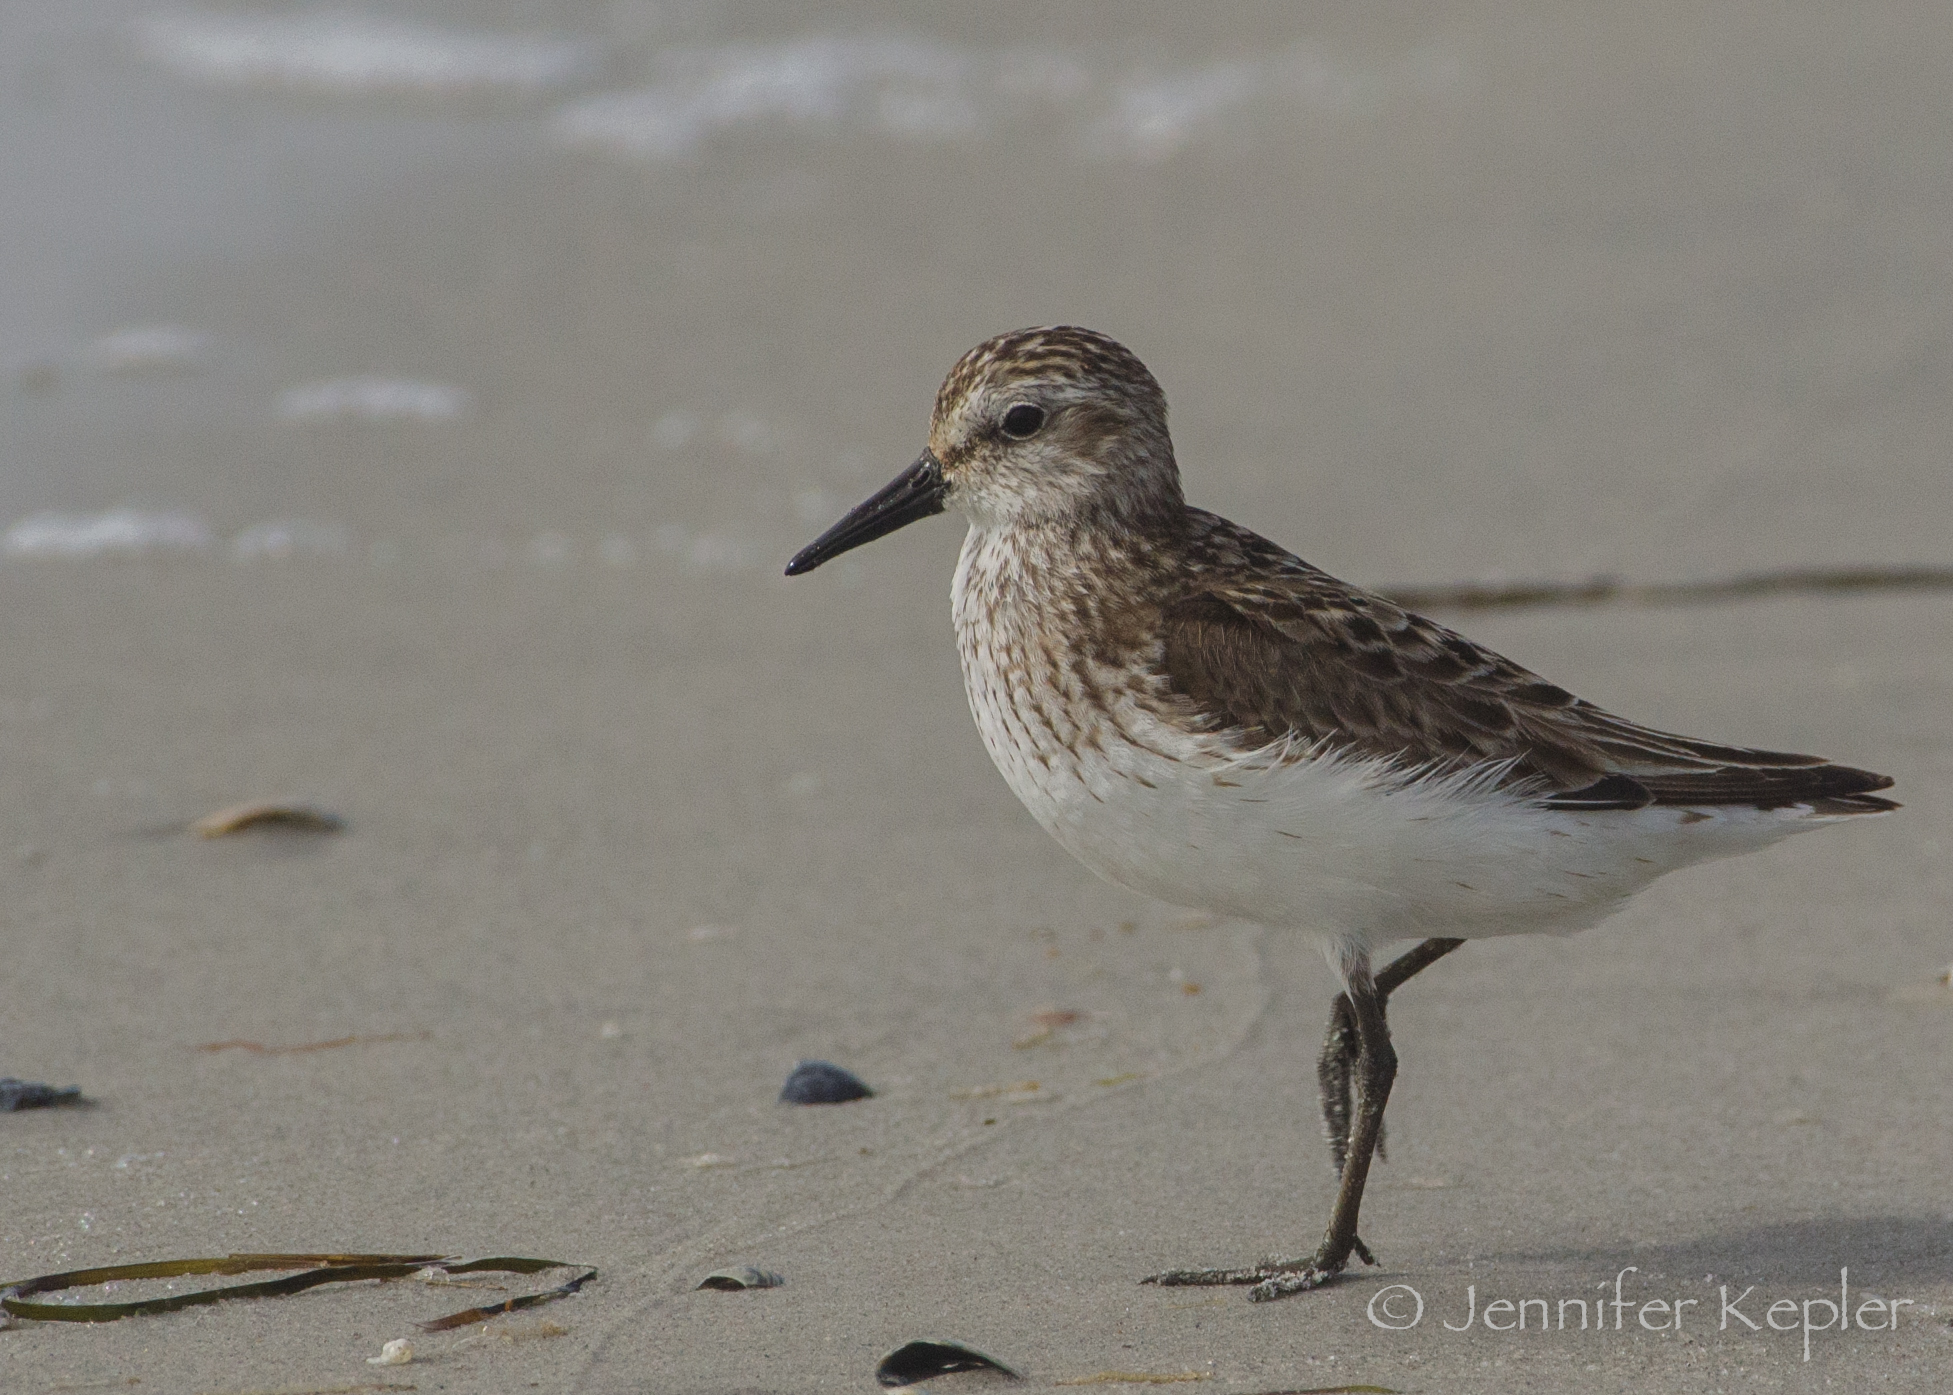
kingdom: Animalia
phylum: Chordata
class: Aves
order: Charadriiformes
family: Scolopacidae
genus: Calidris
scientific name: Calidris pusilla
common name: Semipalmated sandpiper
